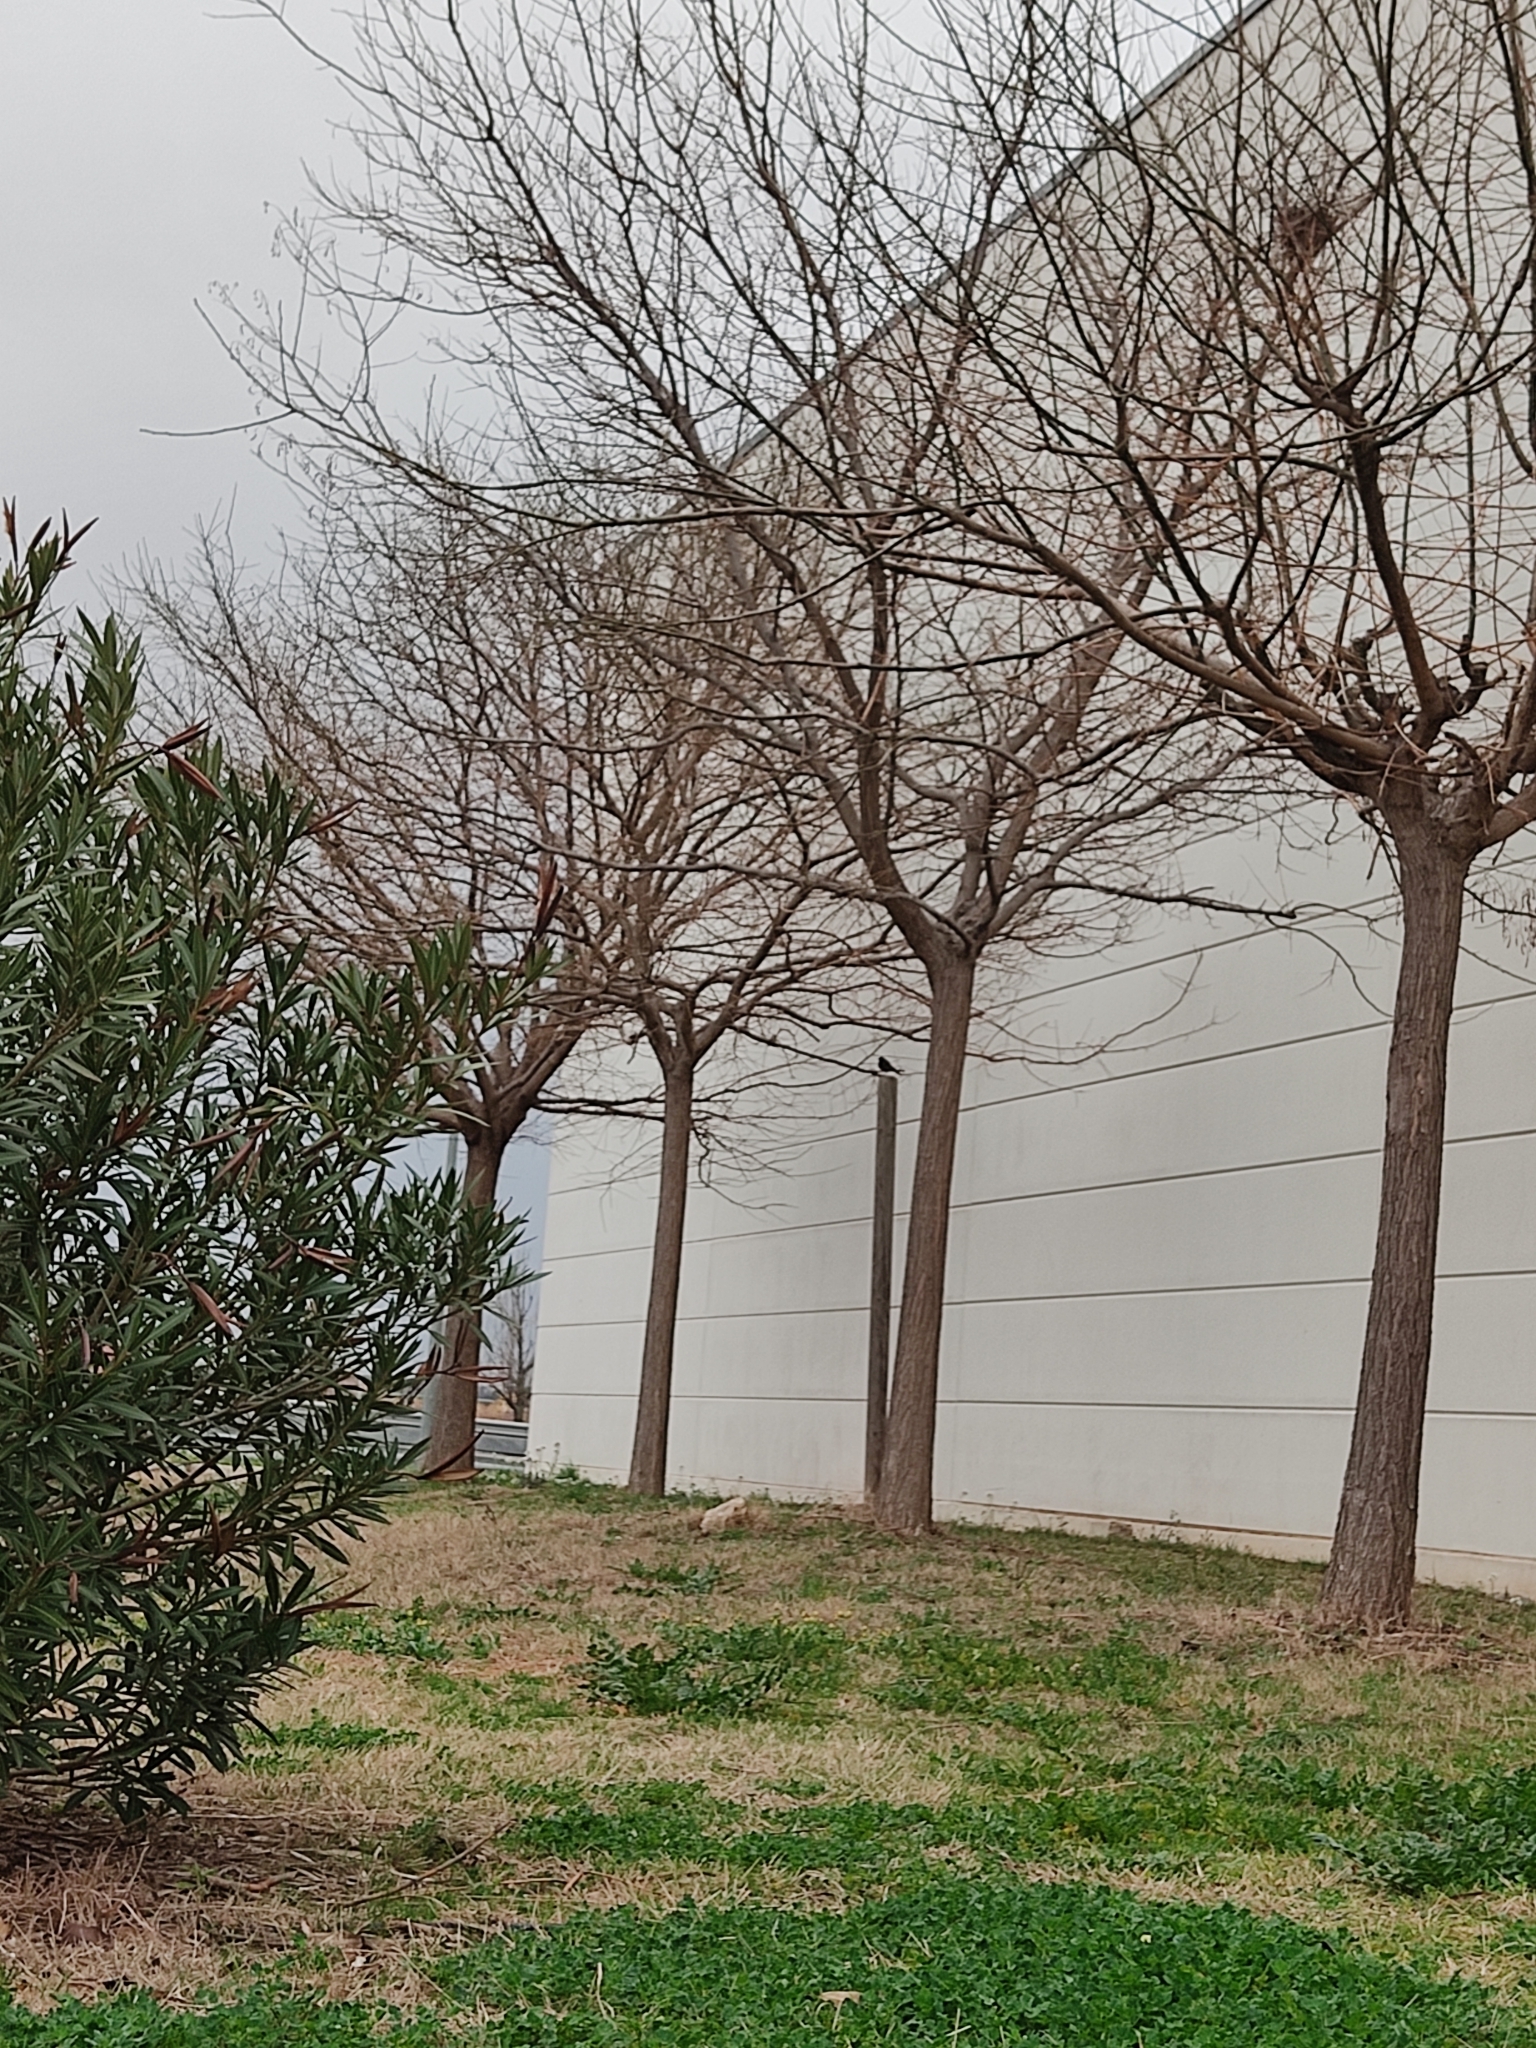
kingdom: Animalia
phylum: Chordata
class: Aves
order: Passeriformes
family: Muscicapidae
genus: Phoenicurus
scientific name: Phoenicurus ochruros
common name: Black redstart
